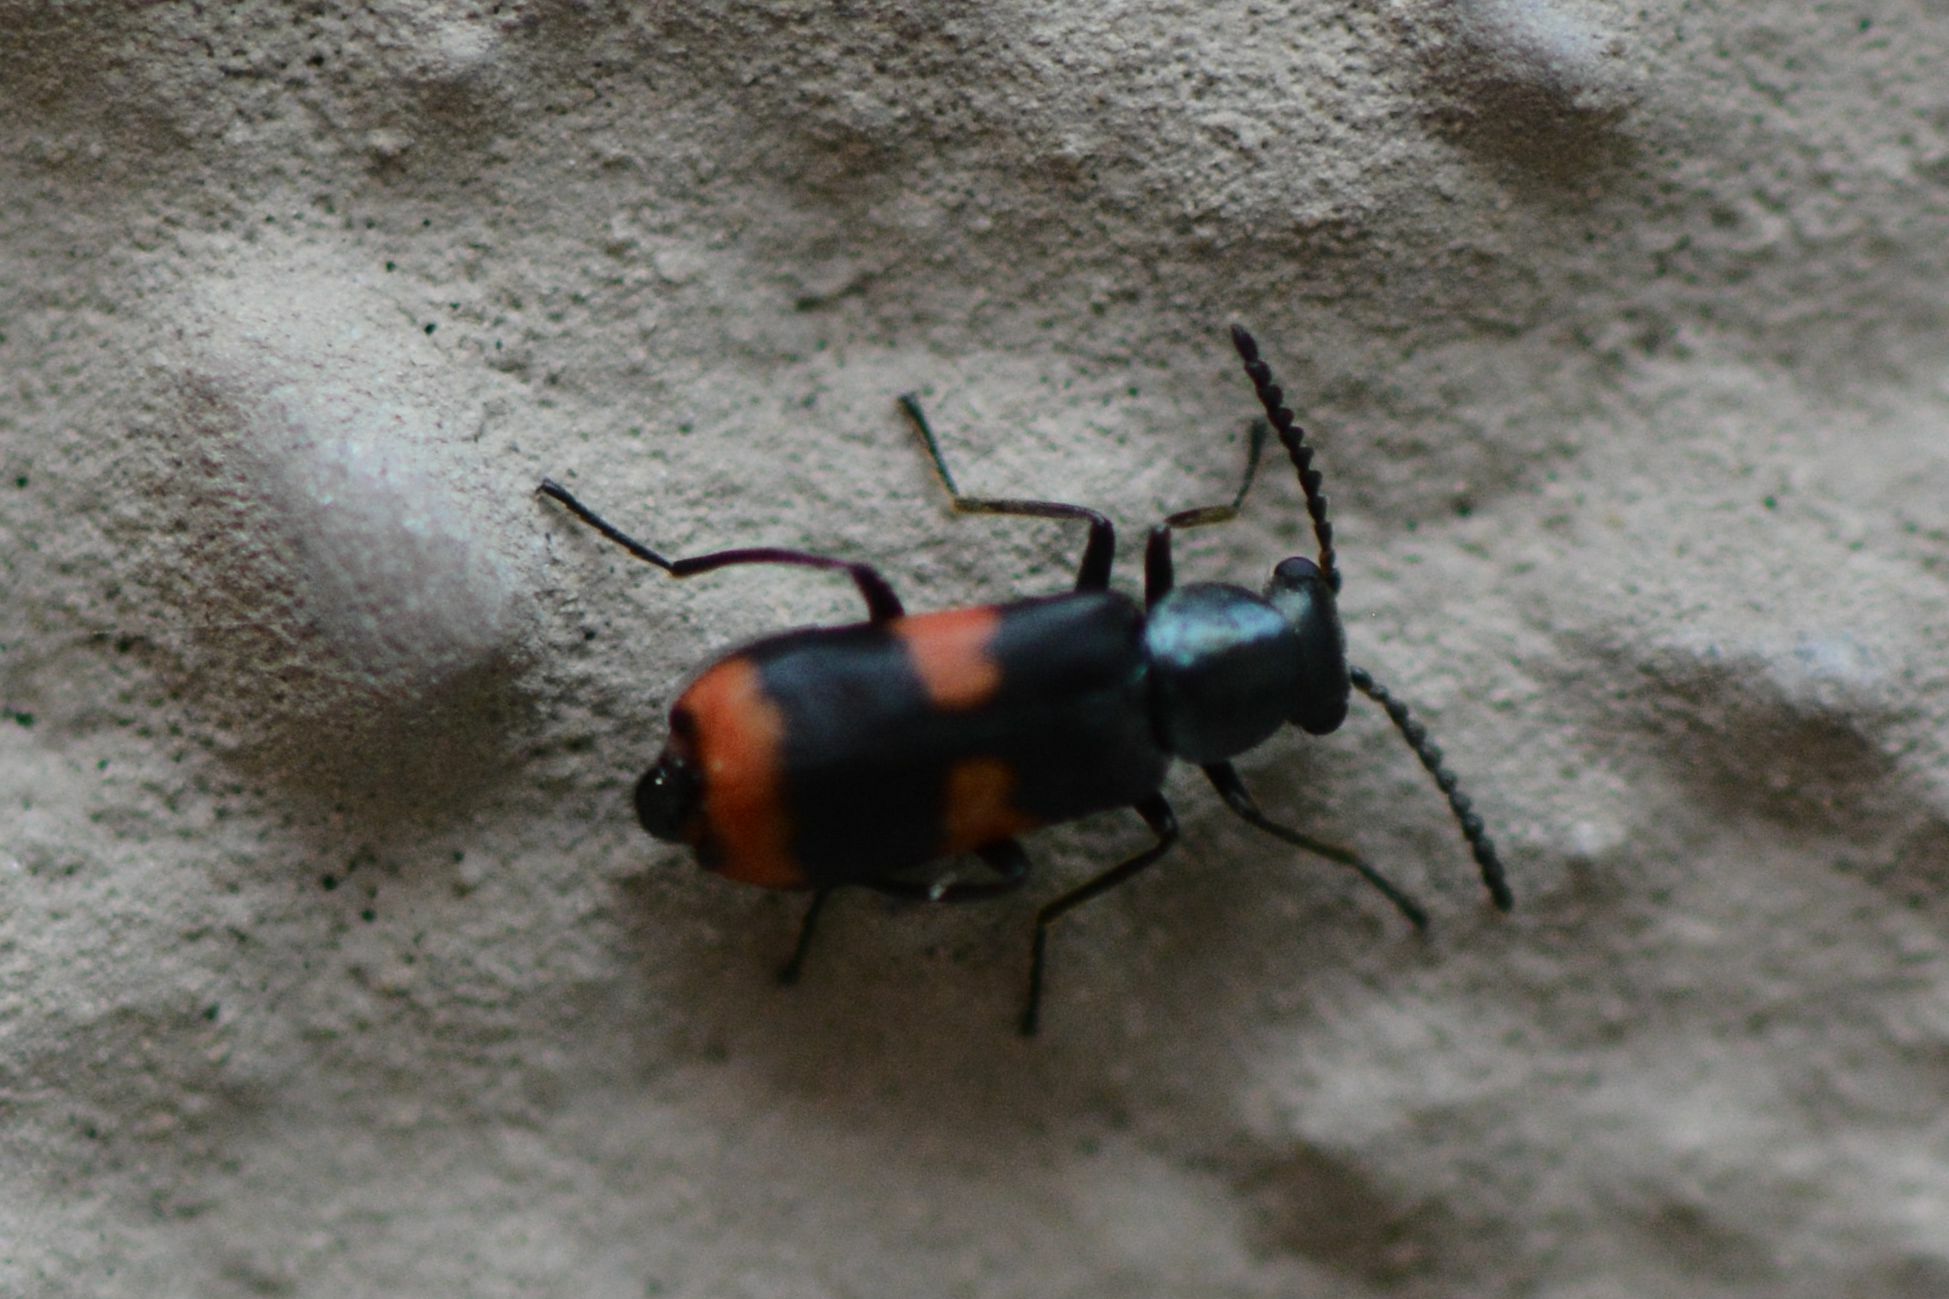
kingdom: Animalia
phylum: Arthropoda
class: Insecta
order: Coleoptera
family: Melyridae
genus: Anthocomus
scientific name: Anthocomus fasciatus
